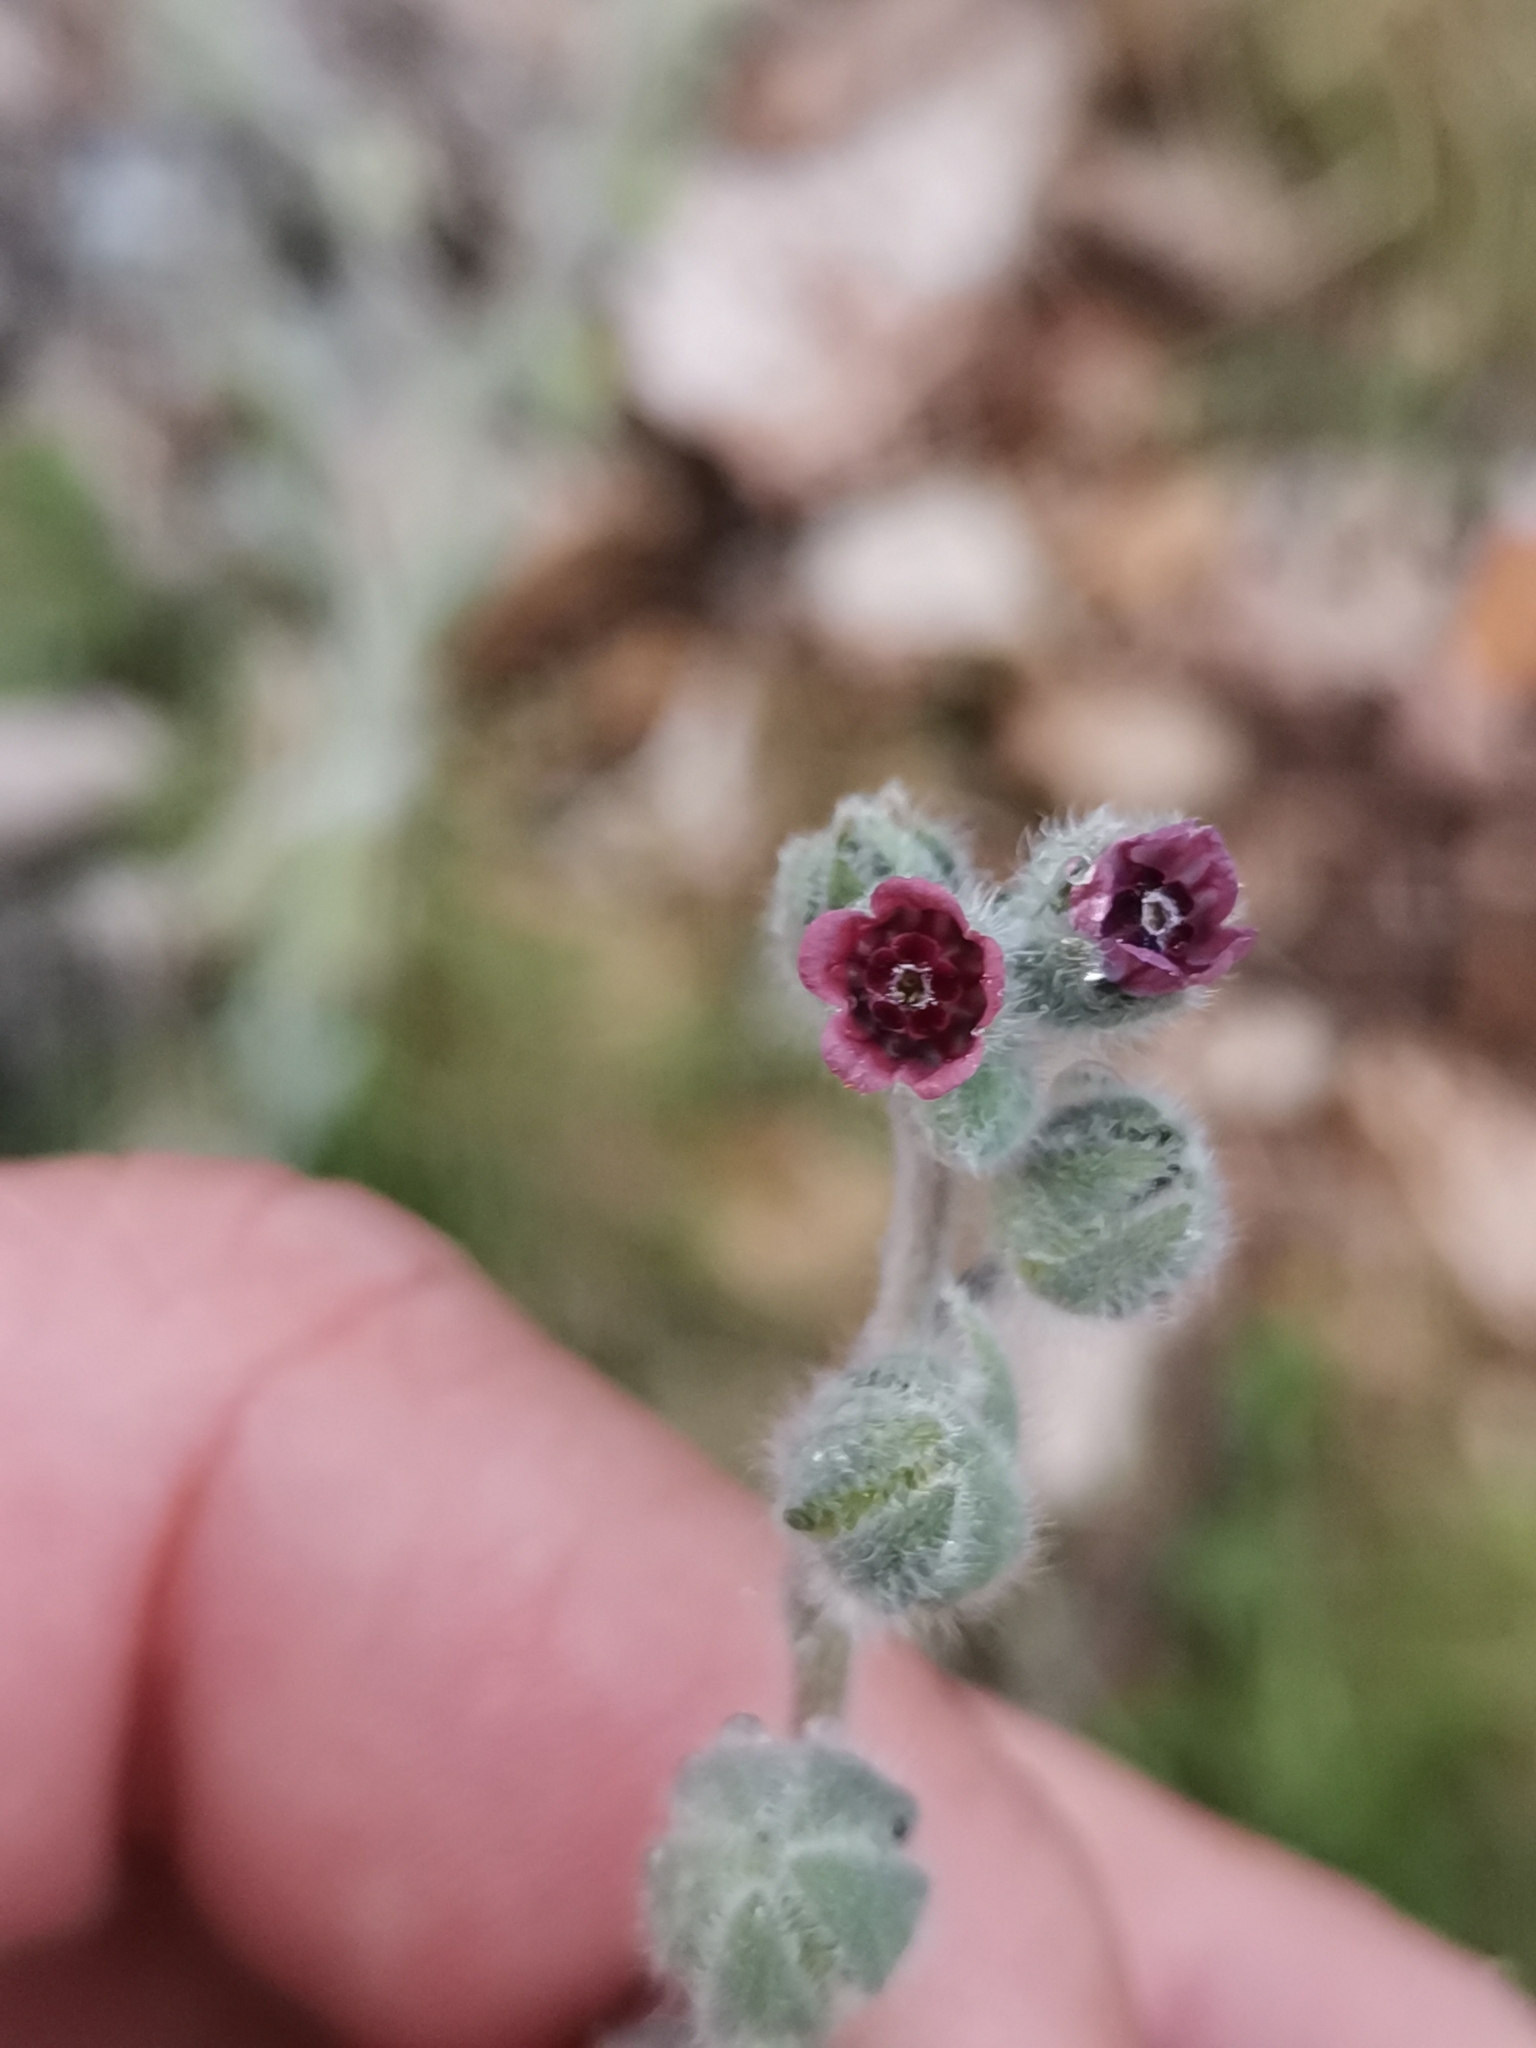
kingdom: Plantae
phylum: Tracheophyta
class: Magnoliopsida
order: Boraginales
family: Boraginaceae
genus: Cynoglossum
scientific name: Cynoglossum columnae
